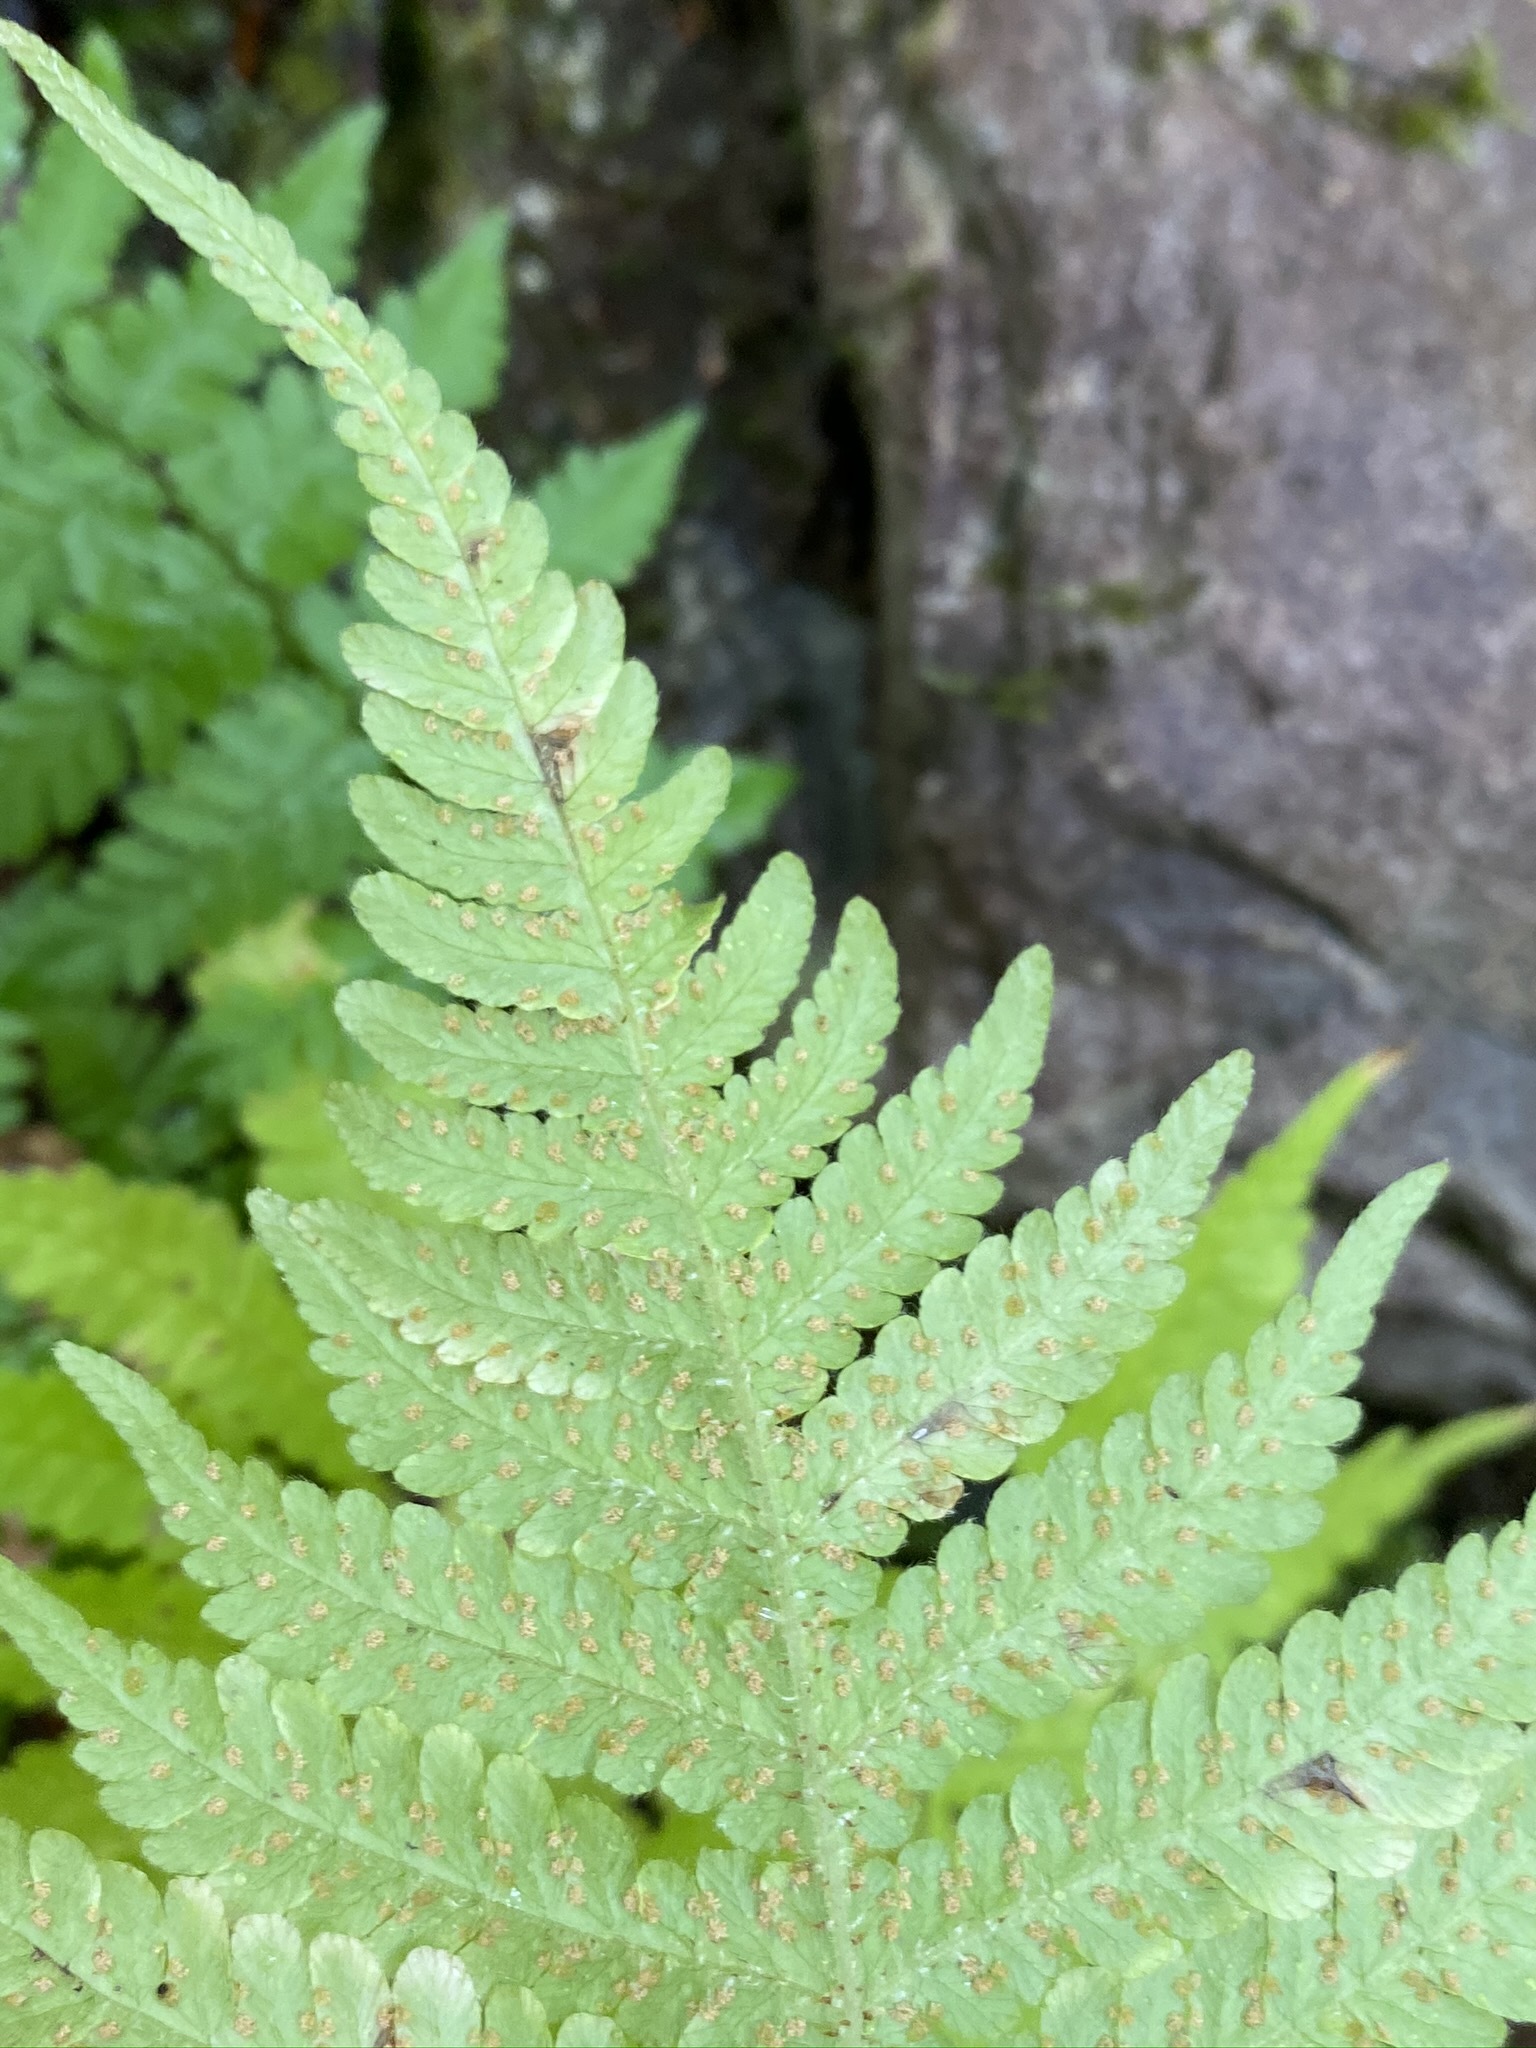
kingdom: Plantae
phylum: Tracheophyta
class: Polypodiopsida
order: Polypodiales
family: Thelypteridaceae
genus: Phegopteris
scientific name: Phegopteris connectilis
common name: Beech fern
